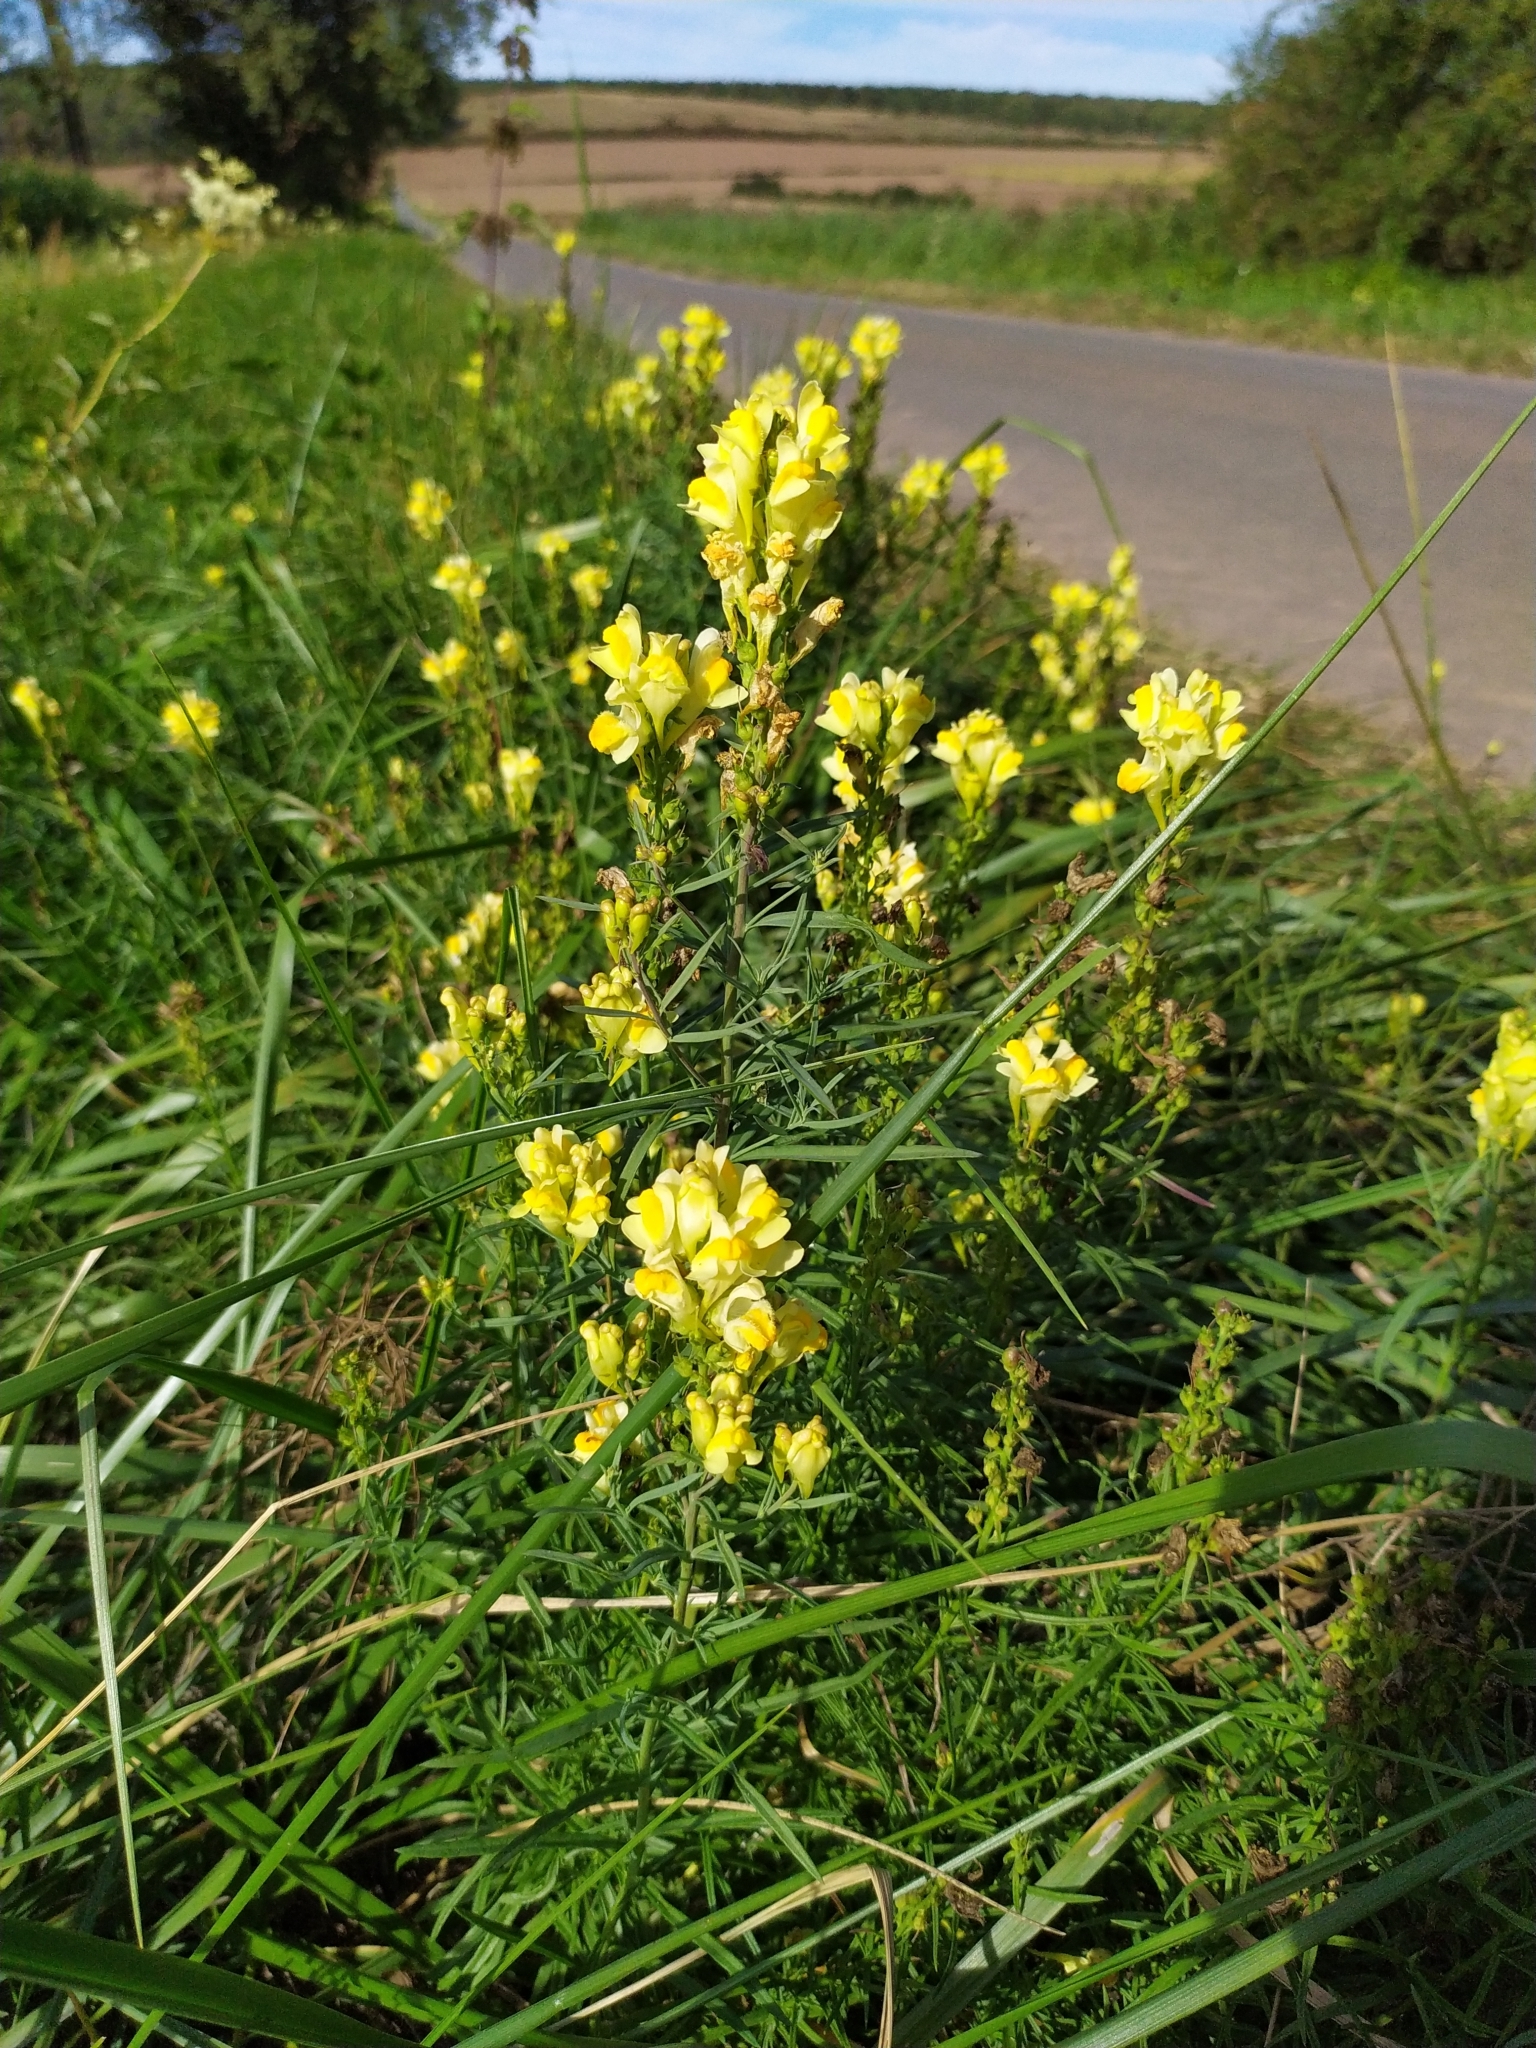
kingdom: Plantae
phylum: Tracheophyta
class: Magnoliopsida
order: Lamiales
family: Plantaginaceae
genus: Linaria
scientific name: Linaria vulgaris
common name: Butter and eggs
